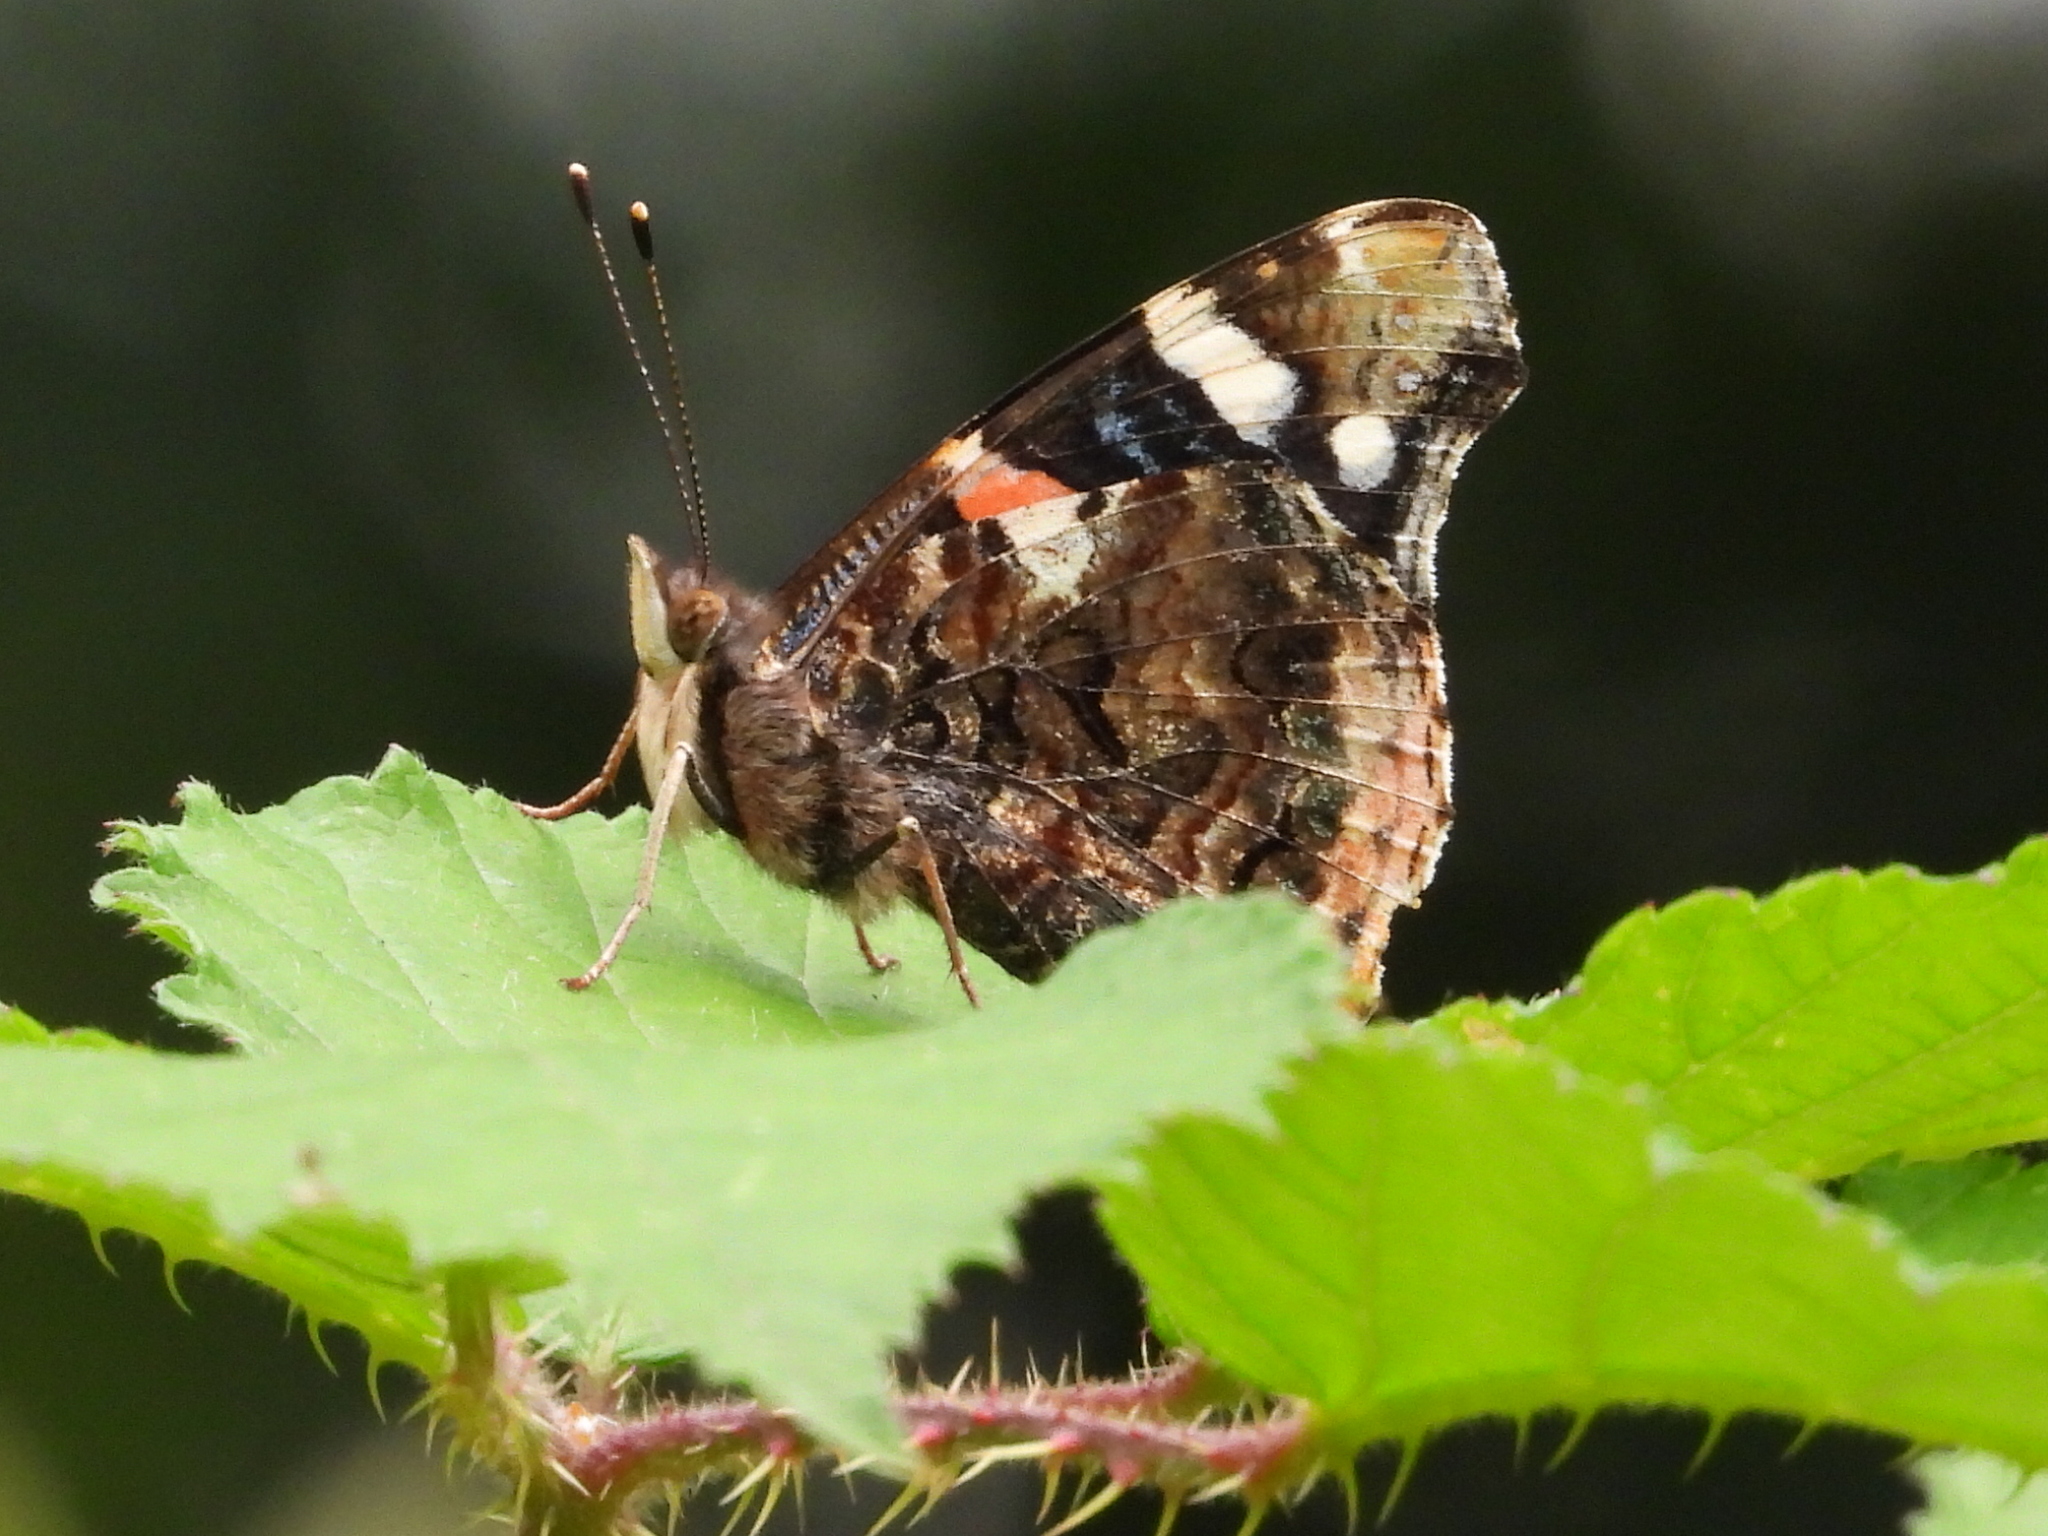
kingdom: Animalia
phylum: Arthropoda
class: Insecta
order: Lepidoptera
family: Nymphalidae
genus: Vanessa
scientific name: Vanessa atalanta
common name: Red admiral
